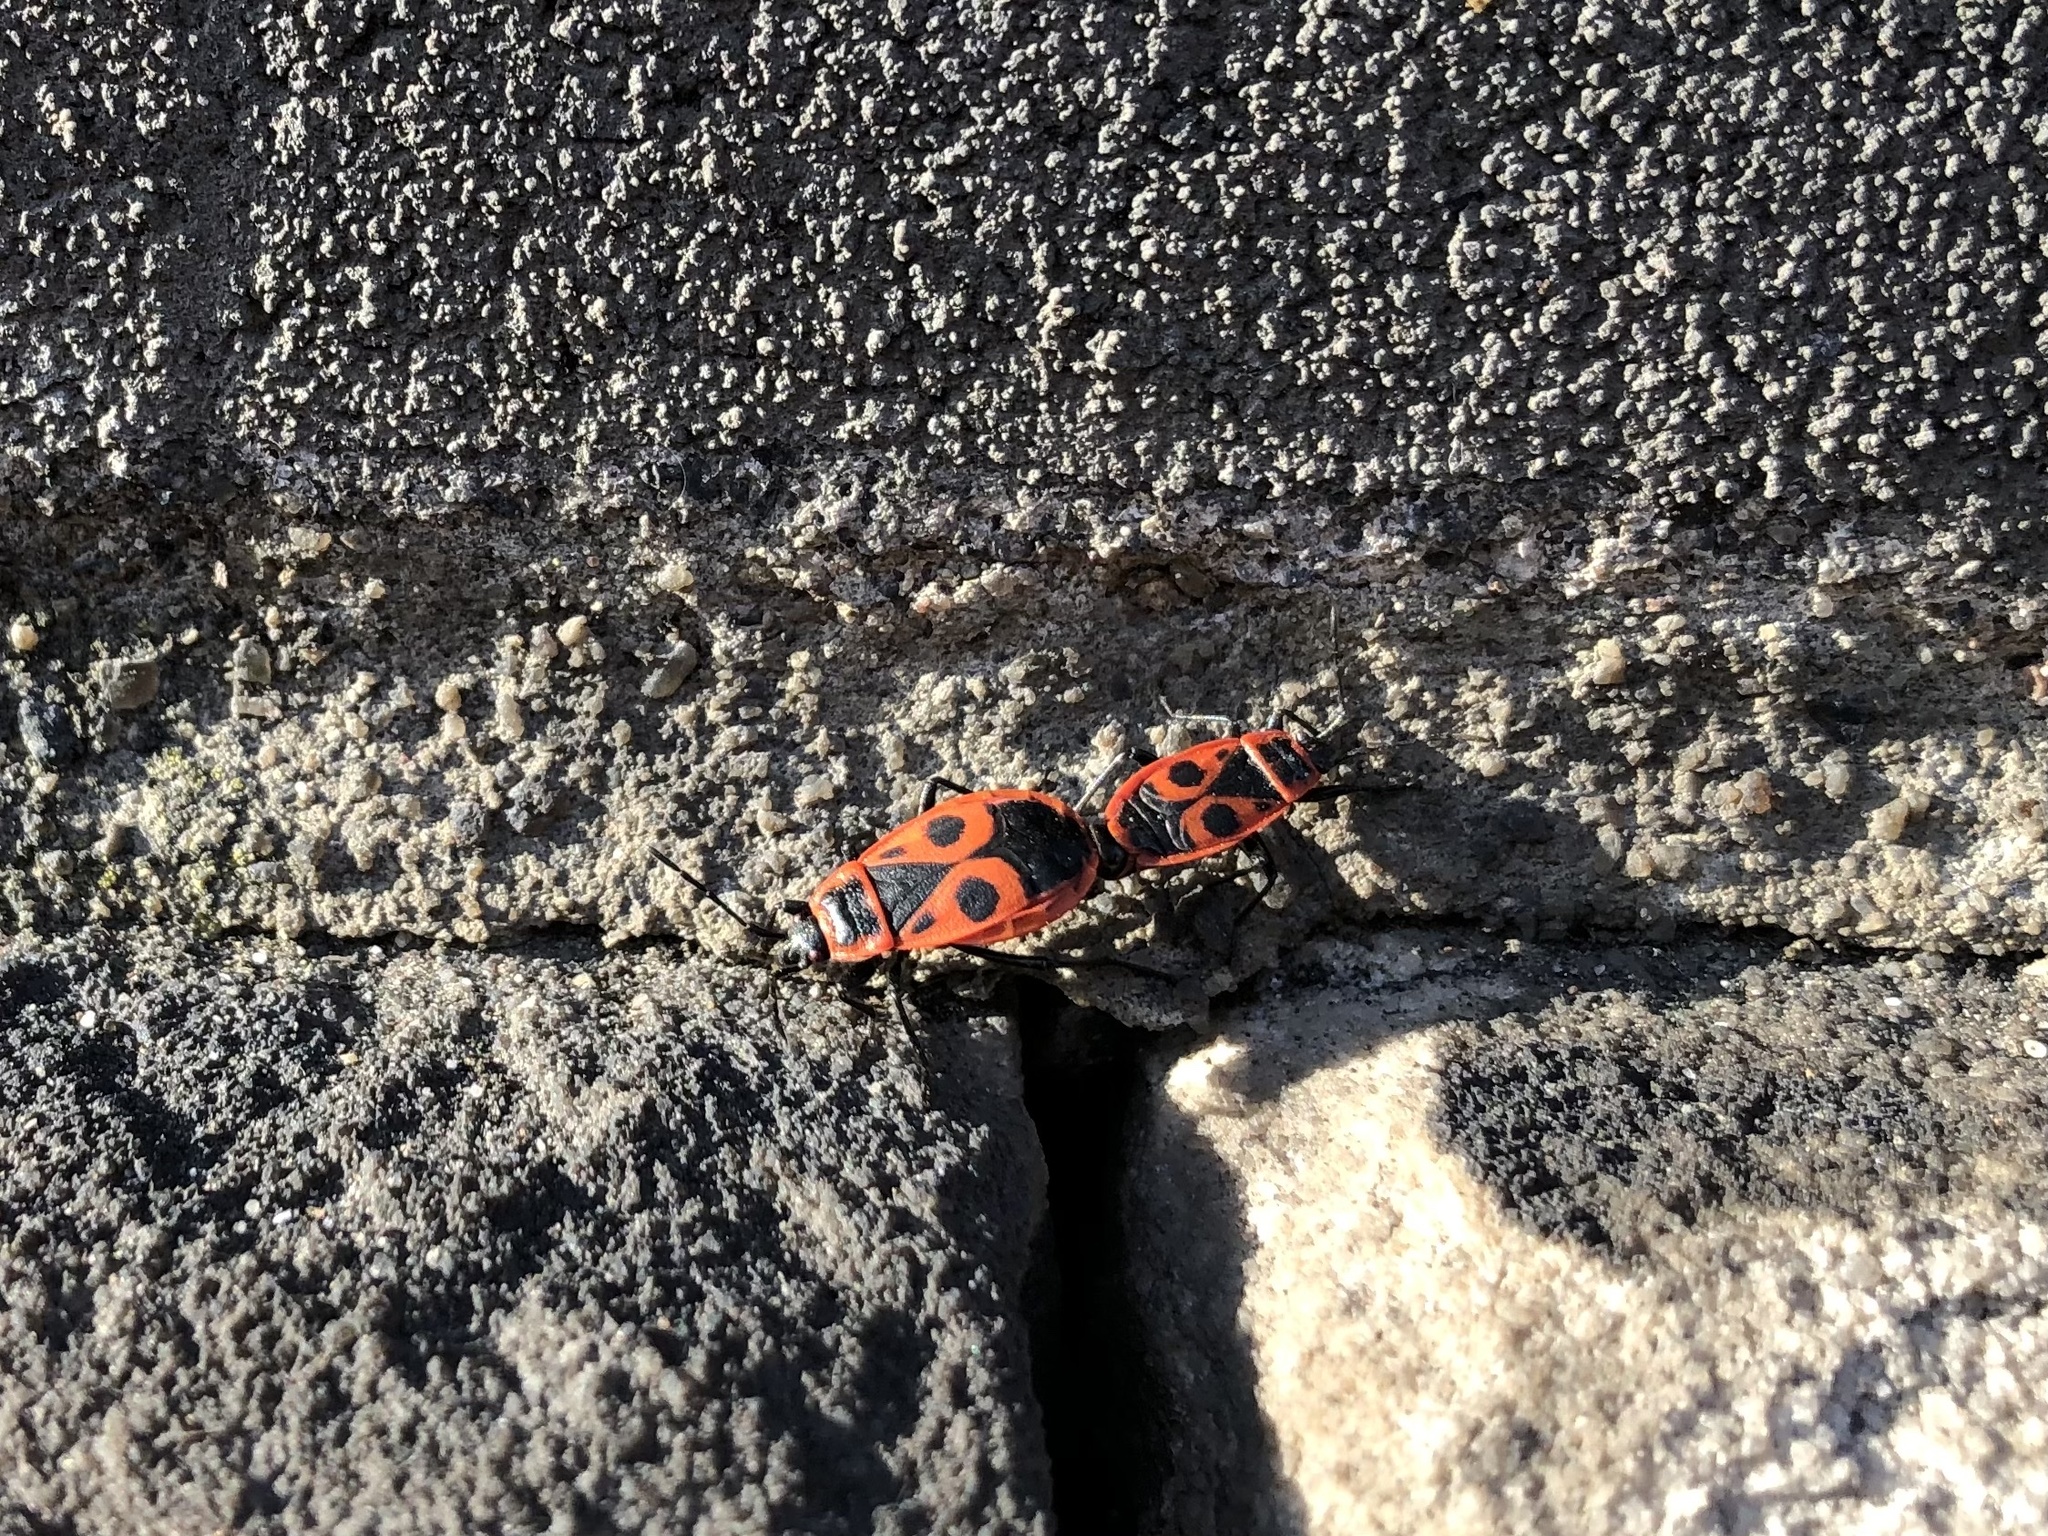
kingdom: Animalia
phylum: Arthropoda
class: Insecta
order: Hemiptera
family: Pyrrhocoridae
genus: Pyrrhocoris
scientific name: Pyrrhocoris apterus
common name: Firebug
